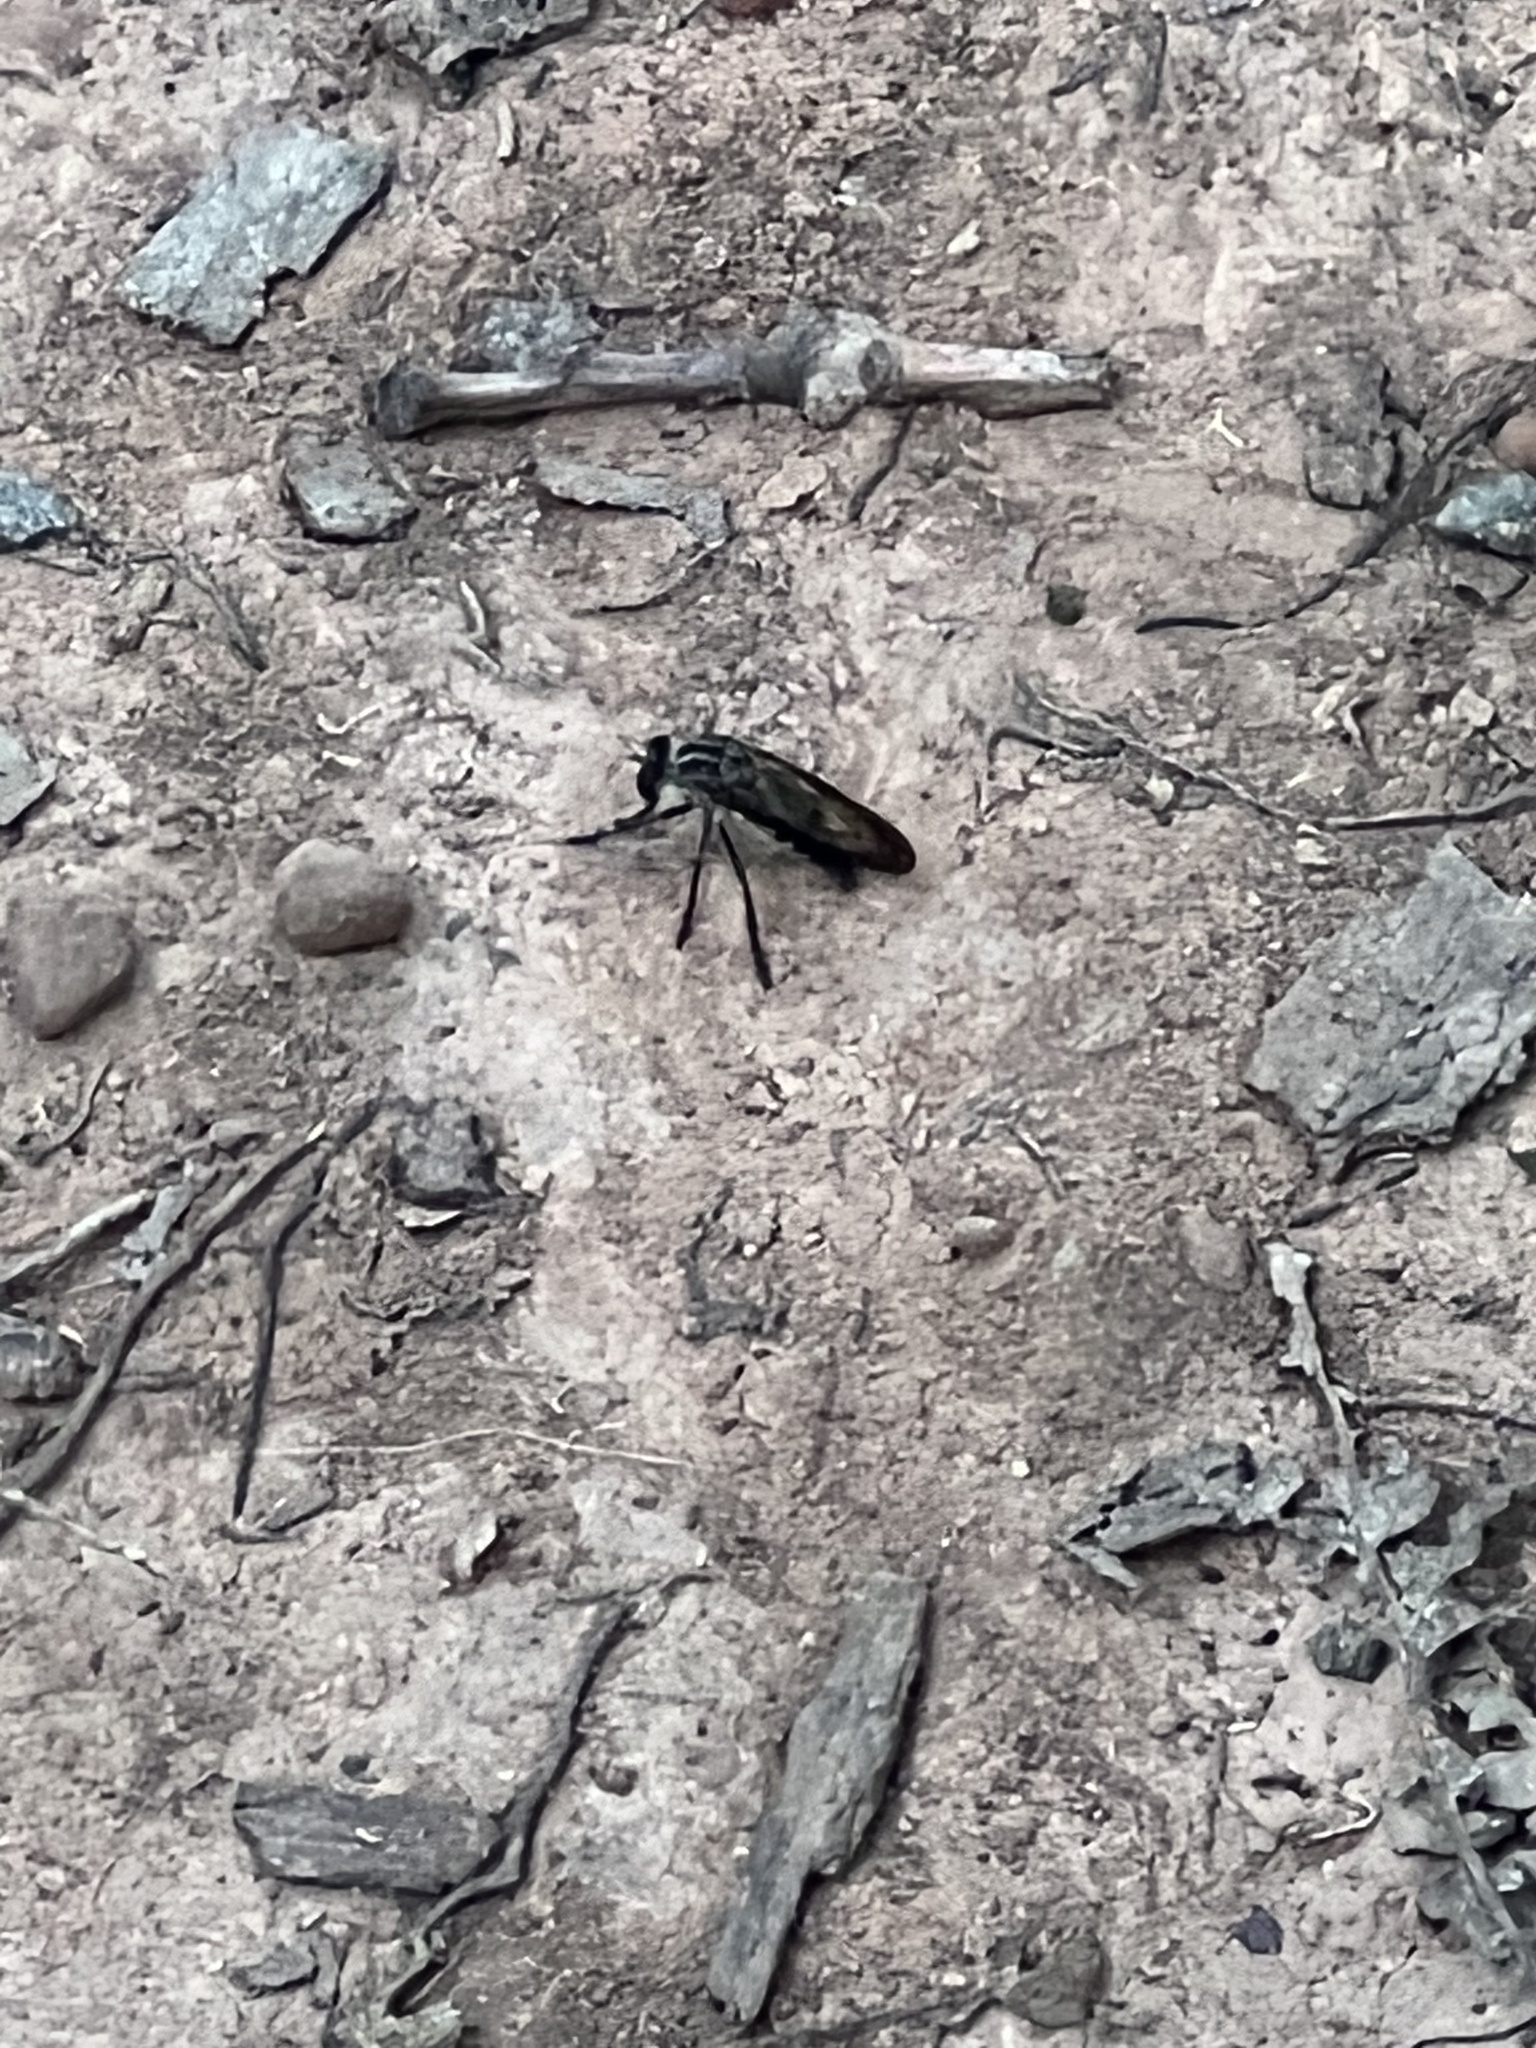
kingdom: Animalia
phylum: Arthropoda
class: Insecta
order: Diptera
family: Asilidae
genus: Heteropogon
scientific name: Heteropogon macerinus
